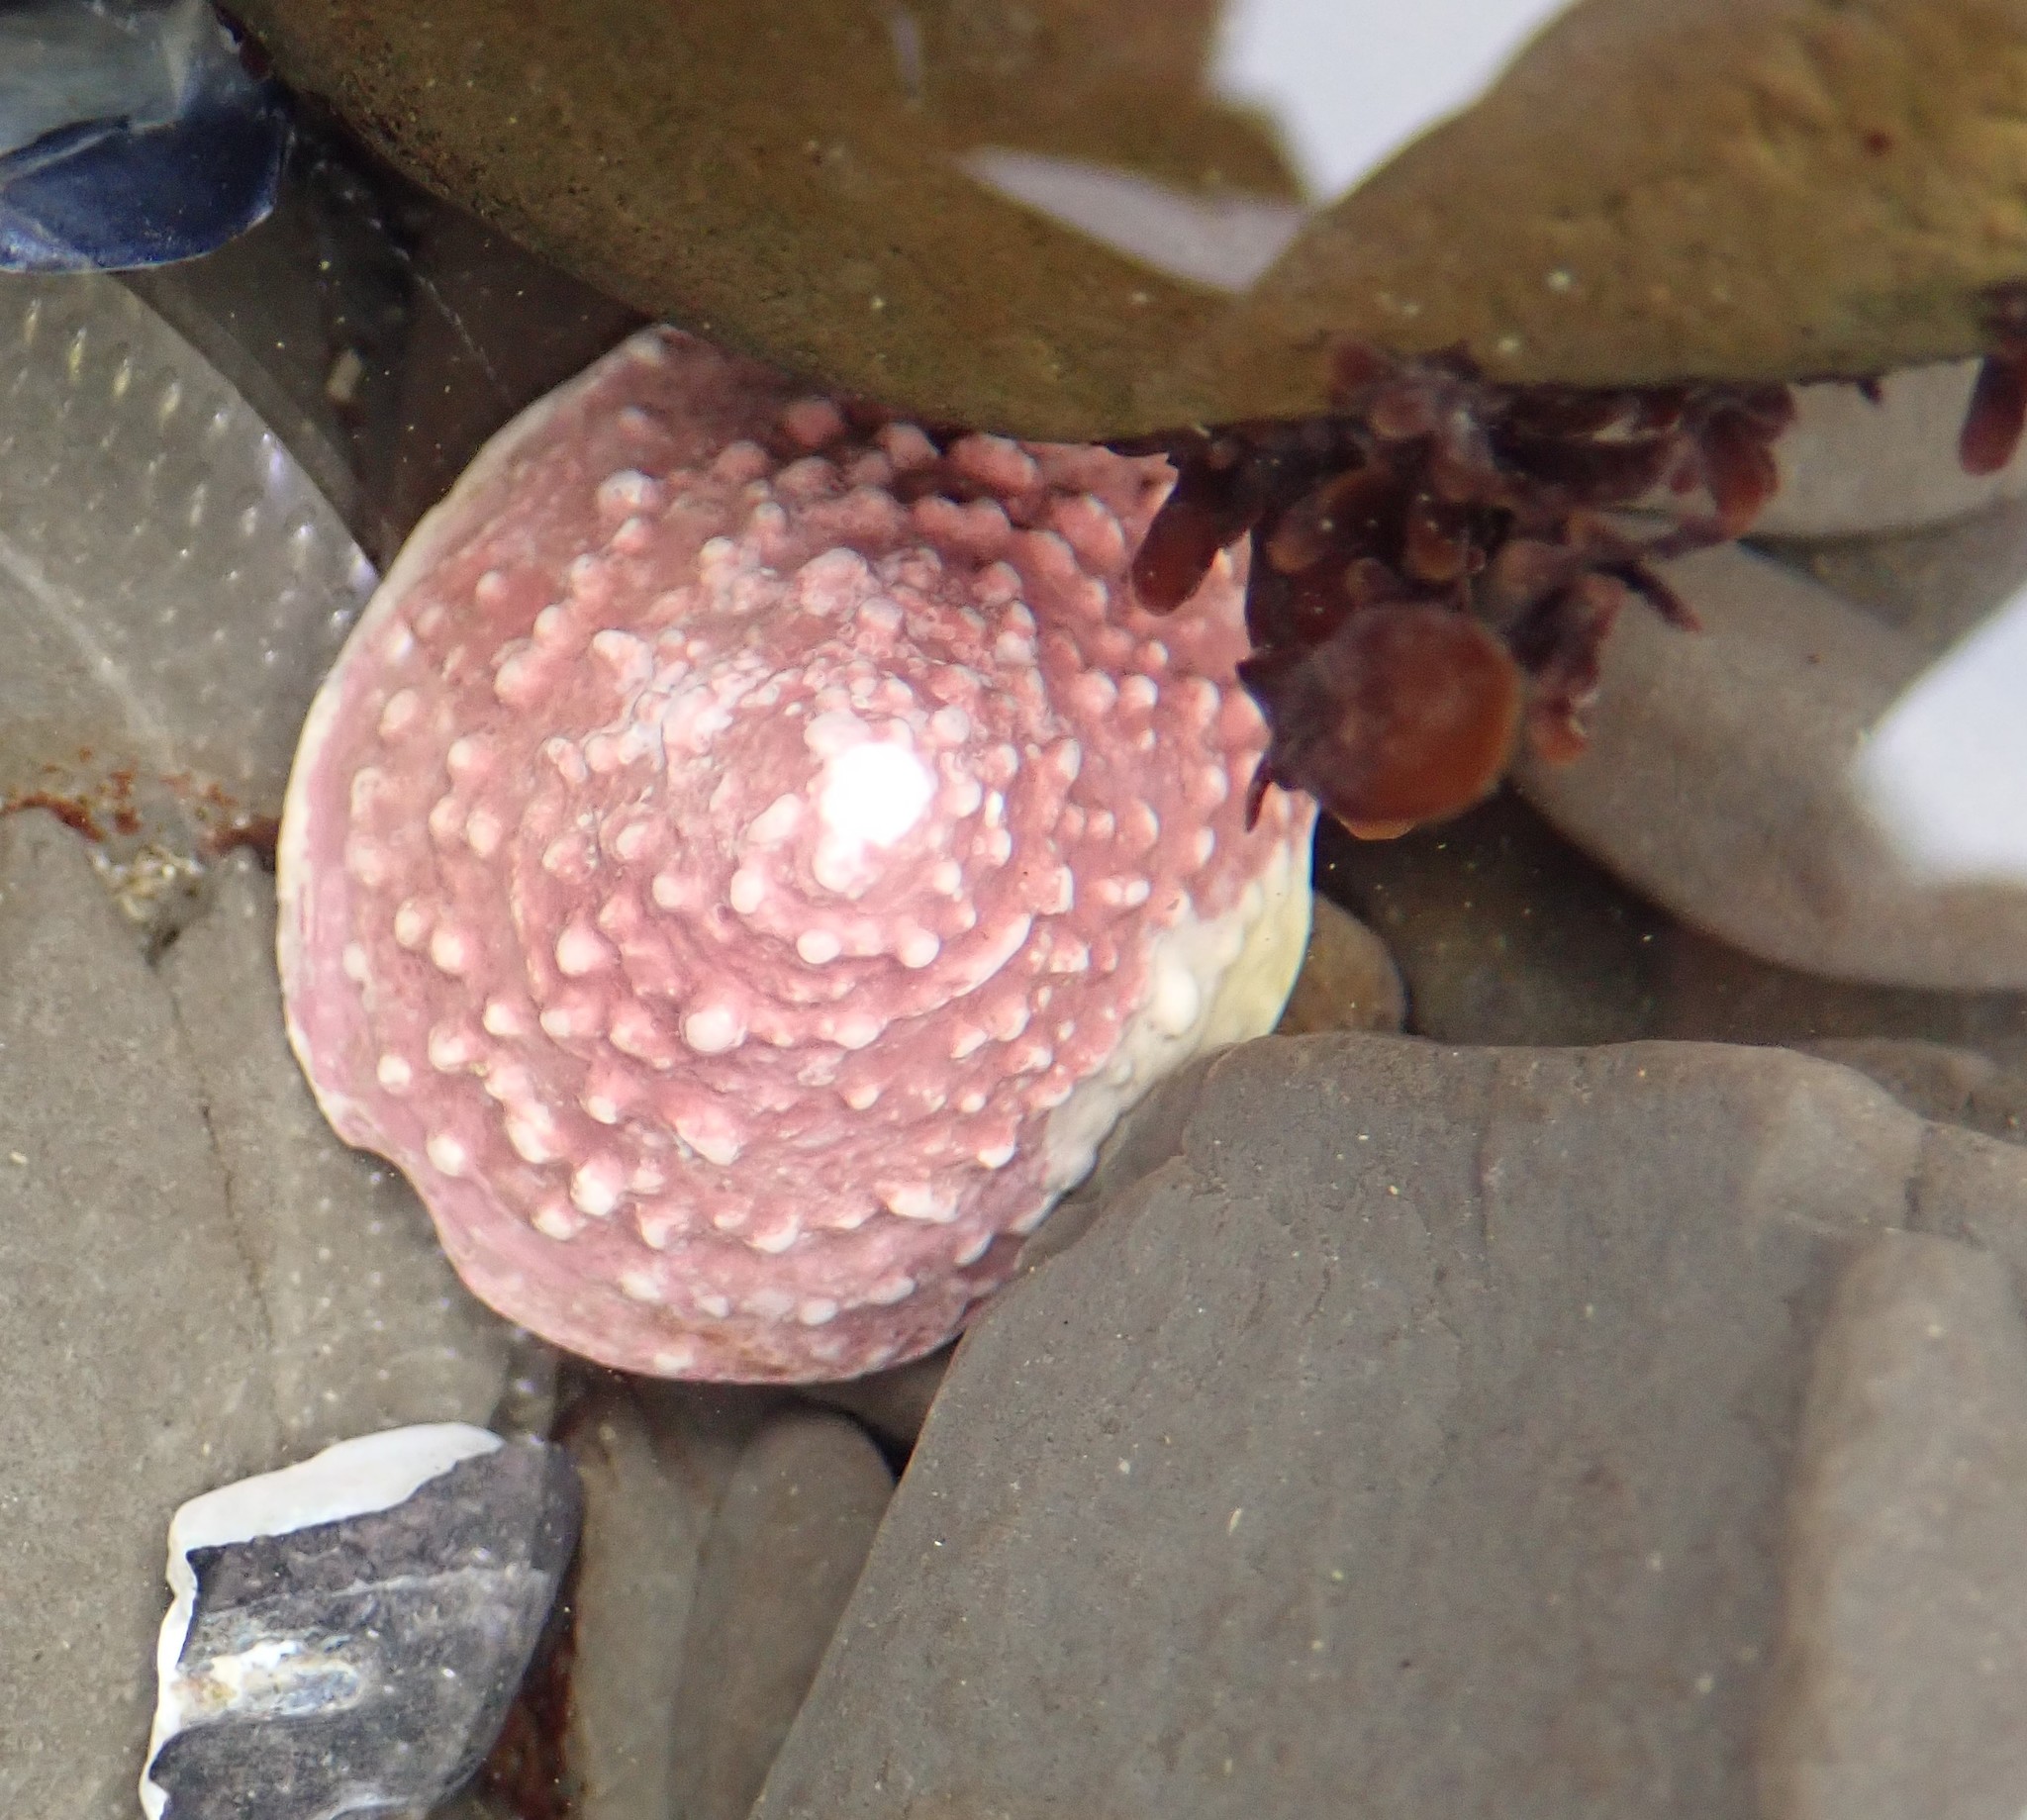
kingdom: Animalia
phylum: Mollusca
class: Gastropoda
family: Acmaeidae
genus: Acmaea
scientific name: Acmaea mitra
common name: Pacific white cap limpet
